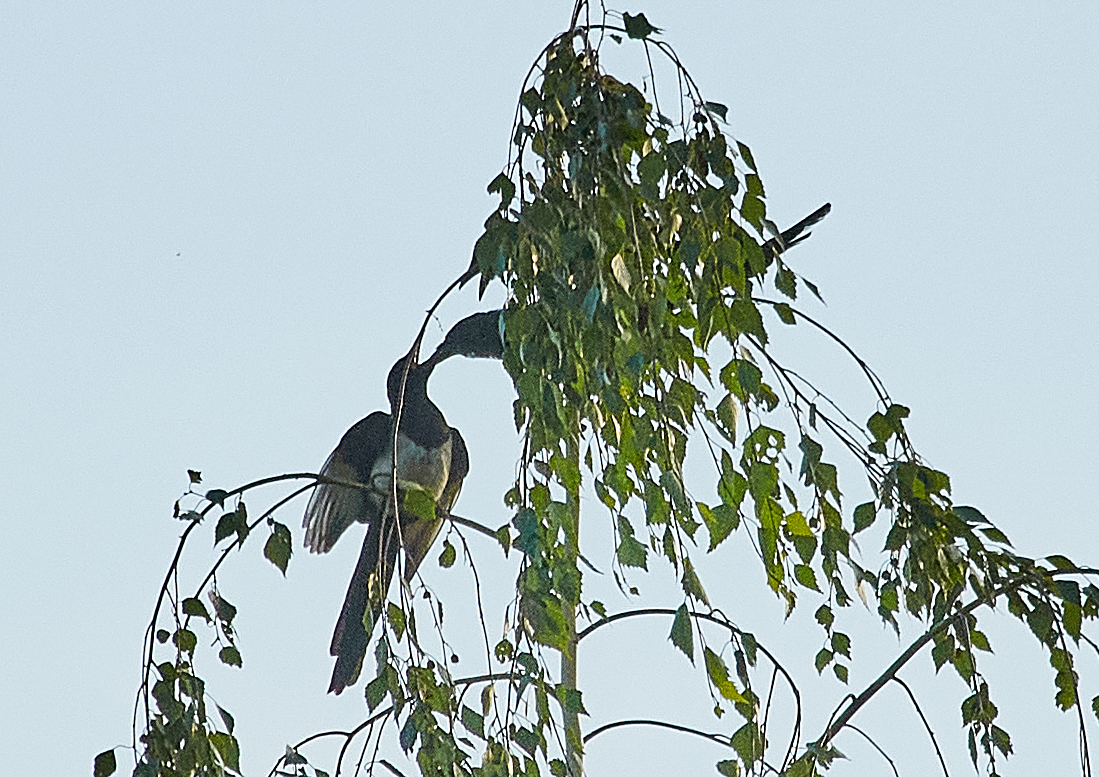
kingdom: Animalia
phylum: Chordata
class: Aves
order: Passeriformes
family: Corvidae
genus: Pica
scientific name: Pica pica
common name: Eurasian magpie
